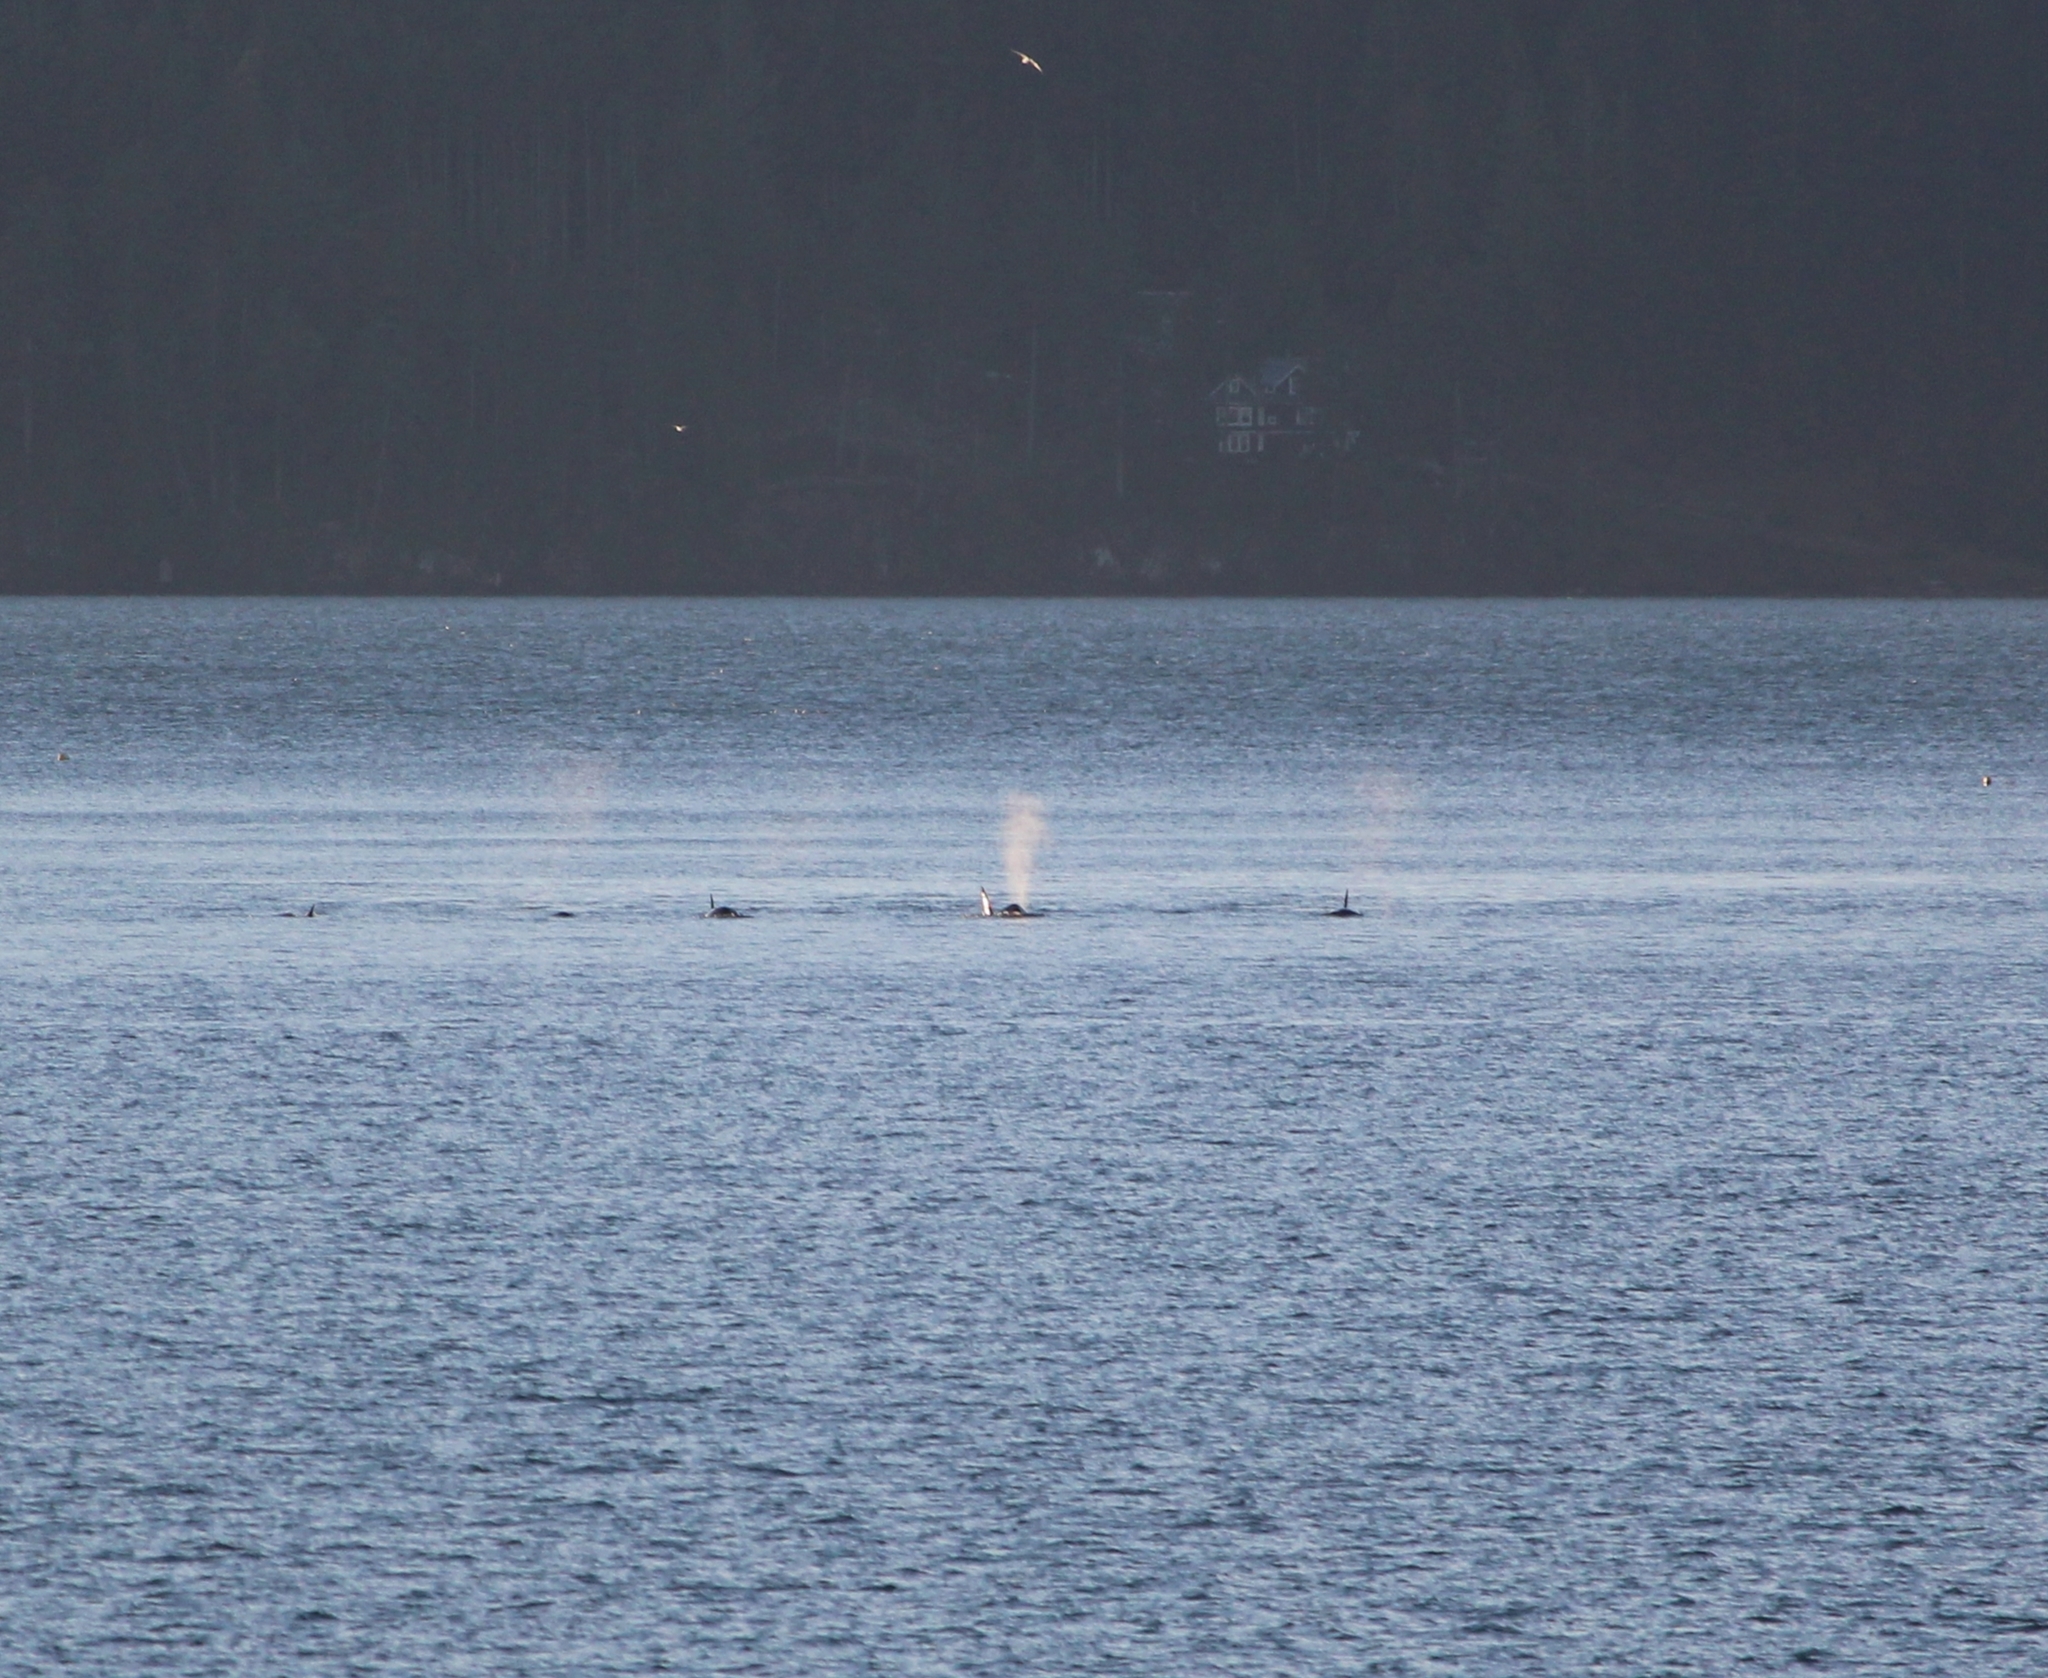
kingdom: Animalia
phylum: Chordata
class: Mammalia
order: Cetacea
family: Delphinidae
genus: Orcinus
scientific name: Orcinus orca
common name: Killer whale
